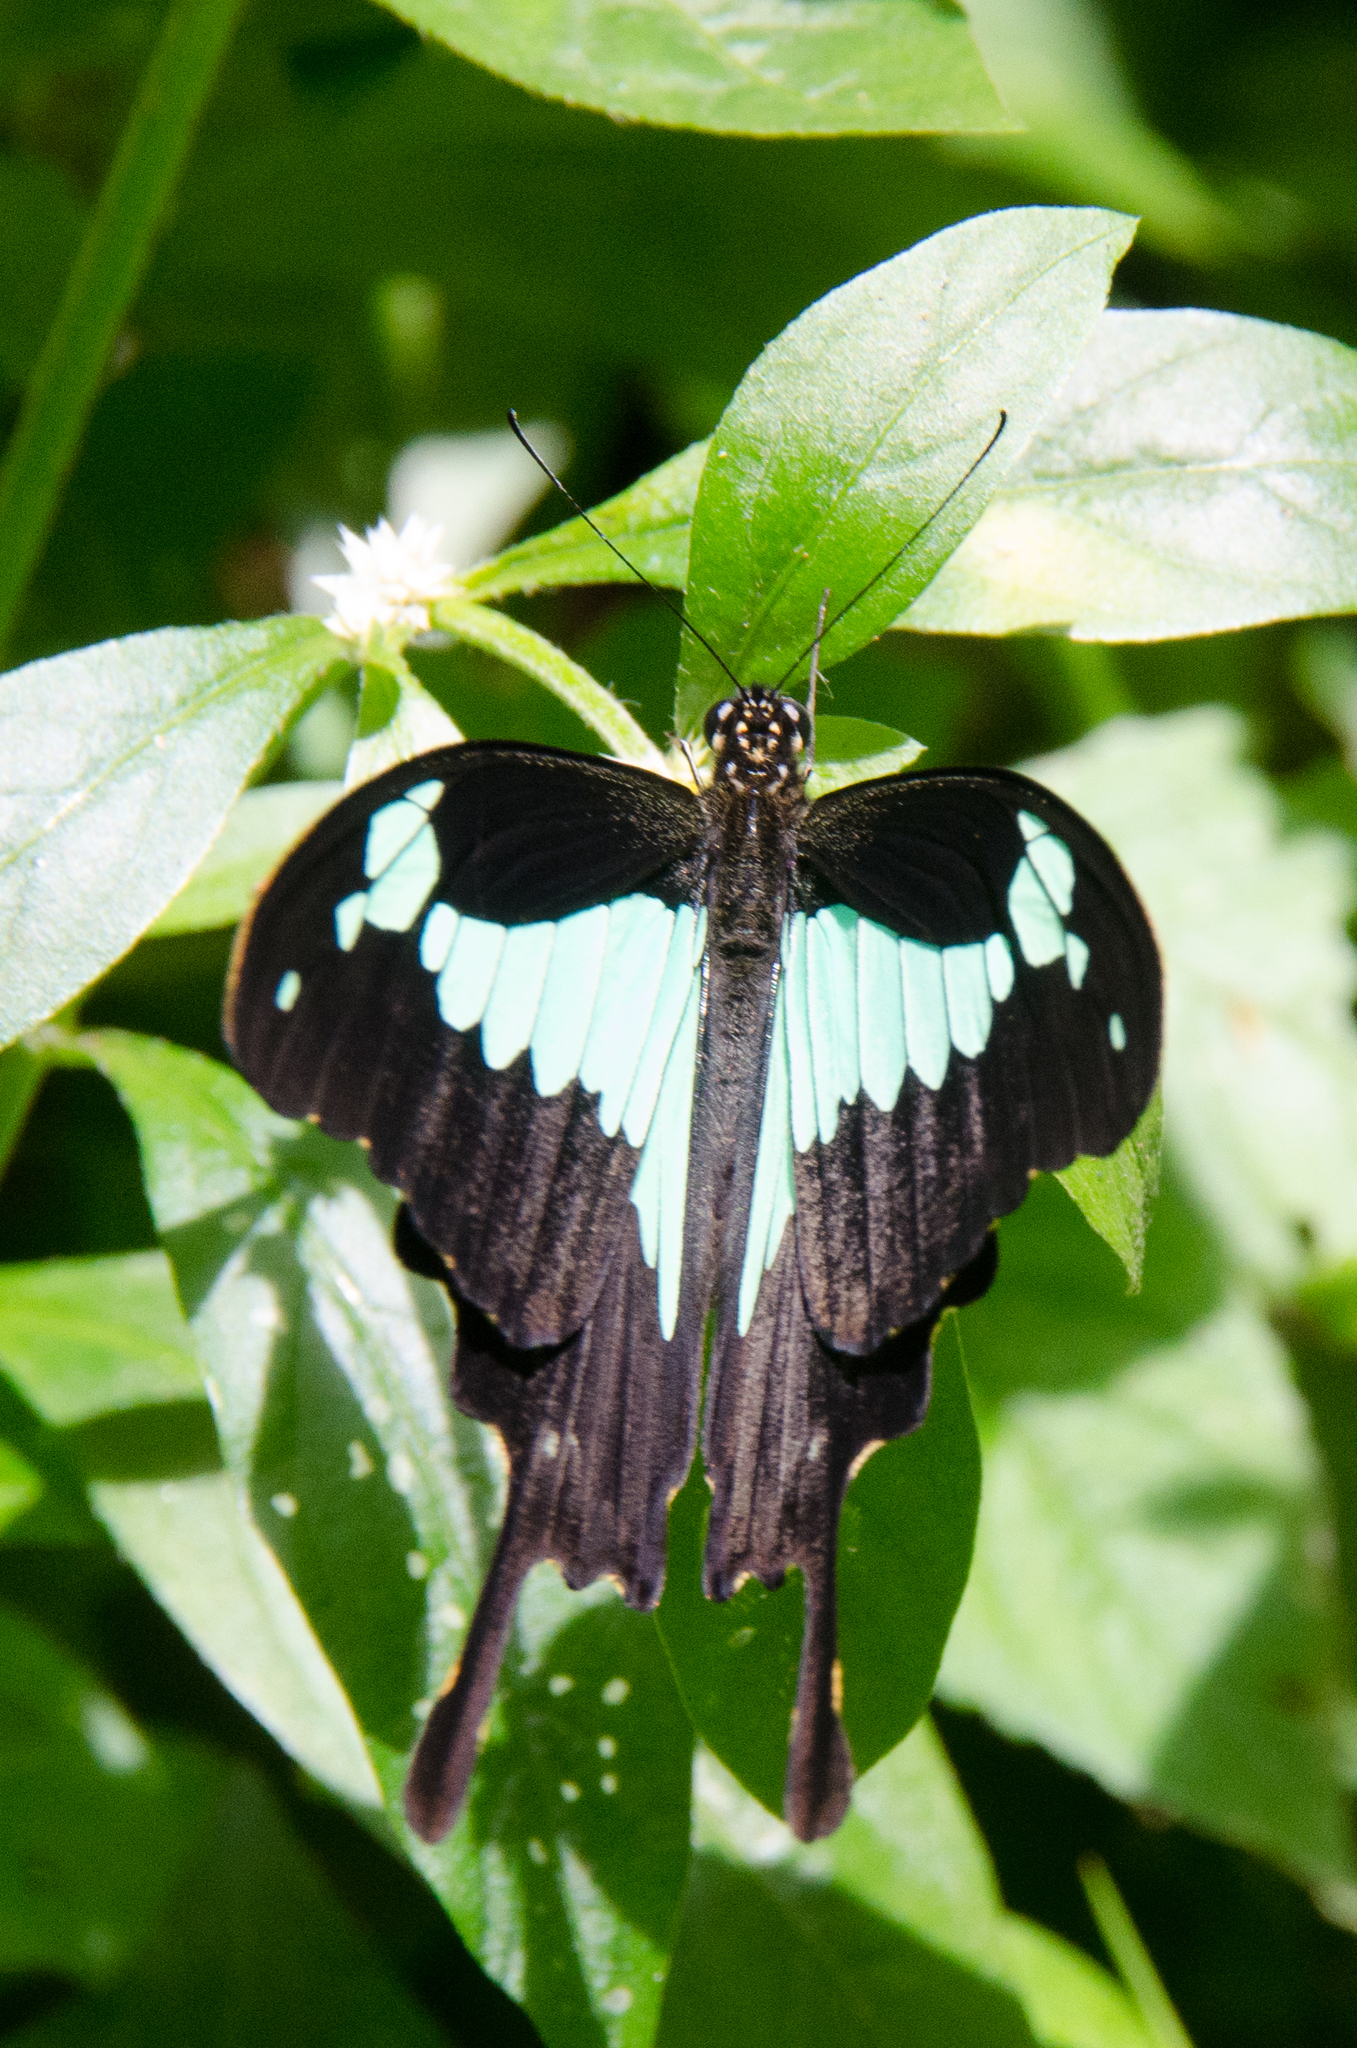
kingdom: Animalia
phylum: Arthropoda
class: Insecta
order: Lepidoptera
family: Papilionidae
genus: Papilio
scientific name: Papilio phorcas
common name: Apple-green swallowtail
